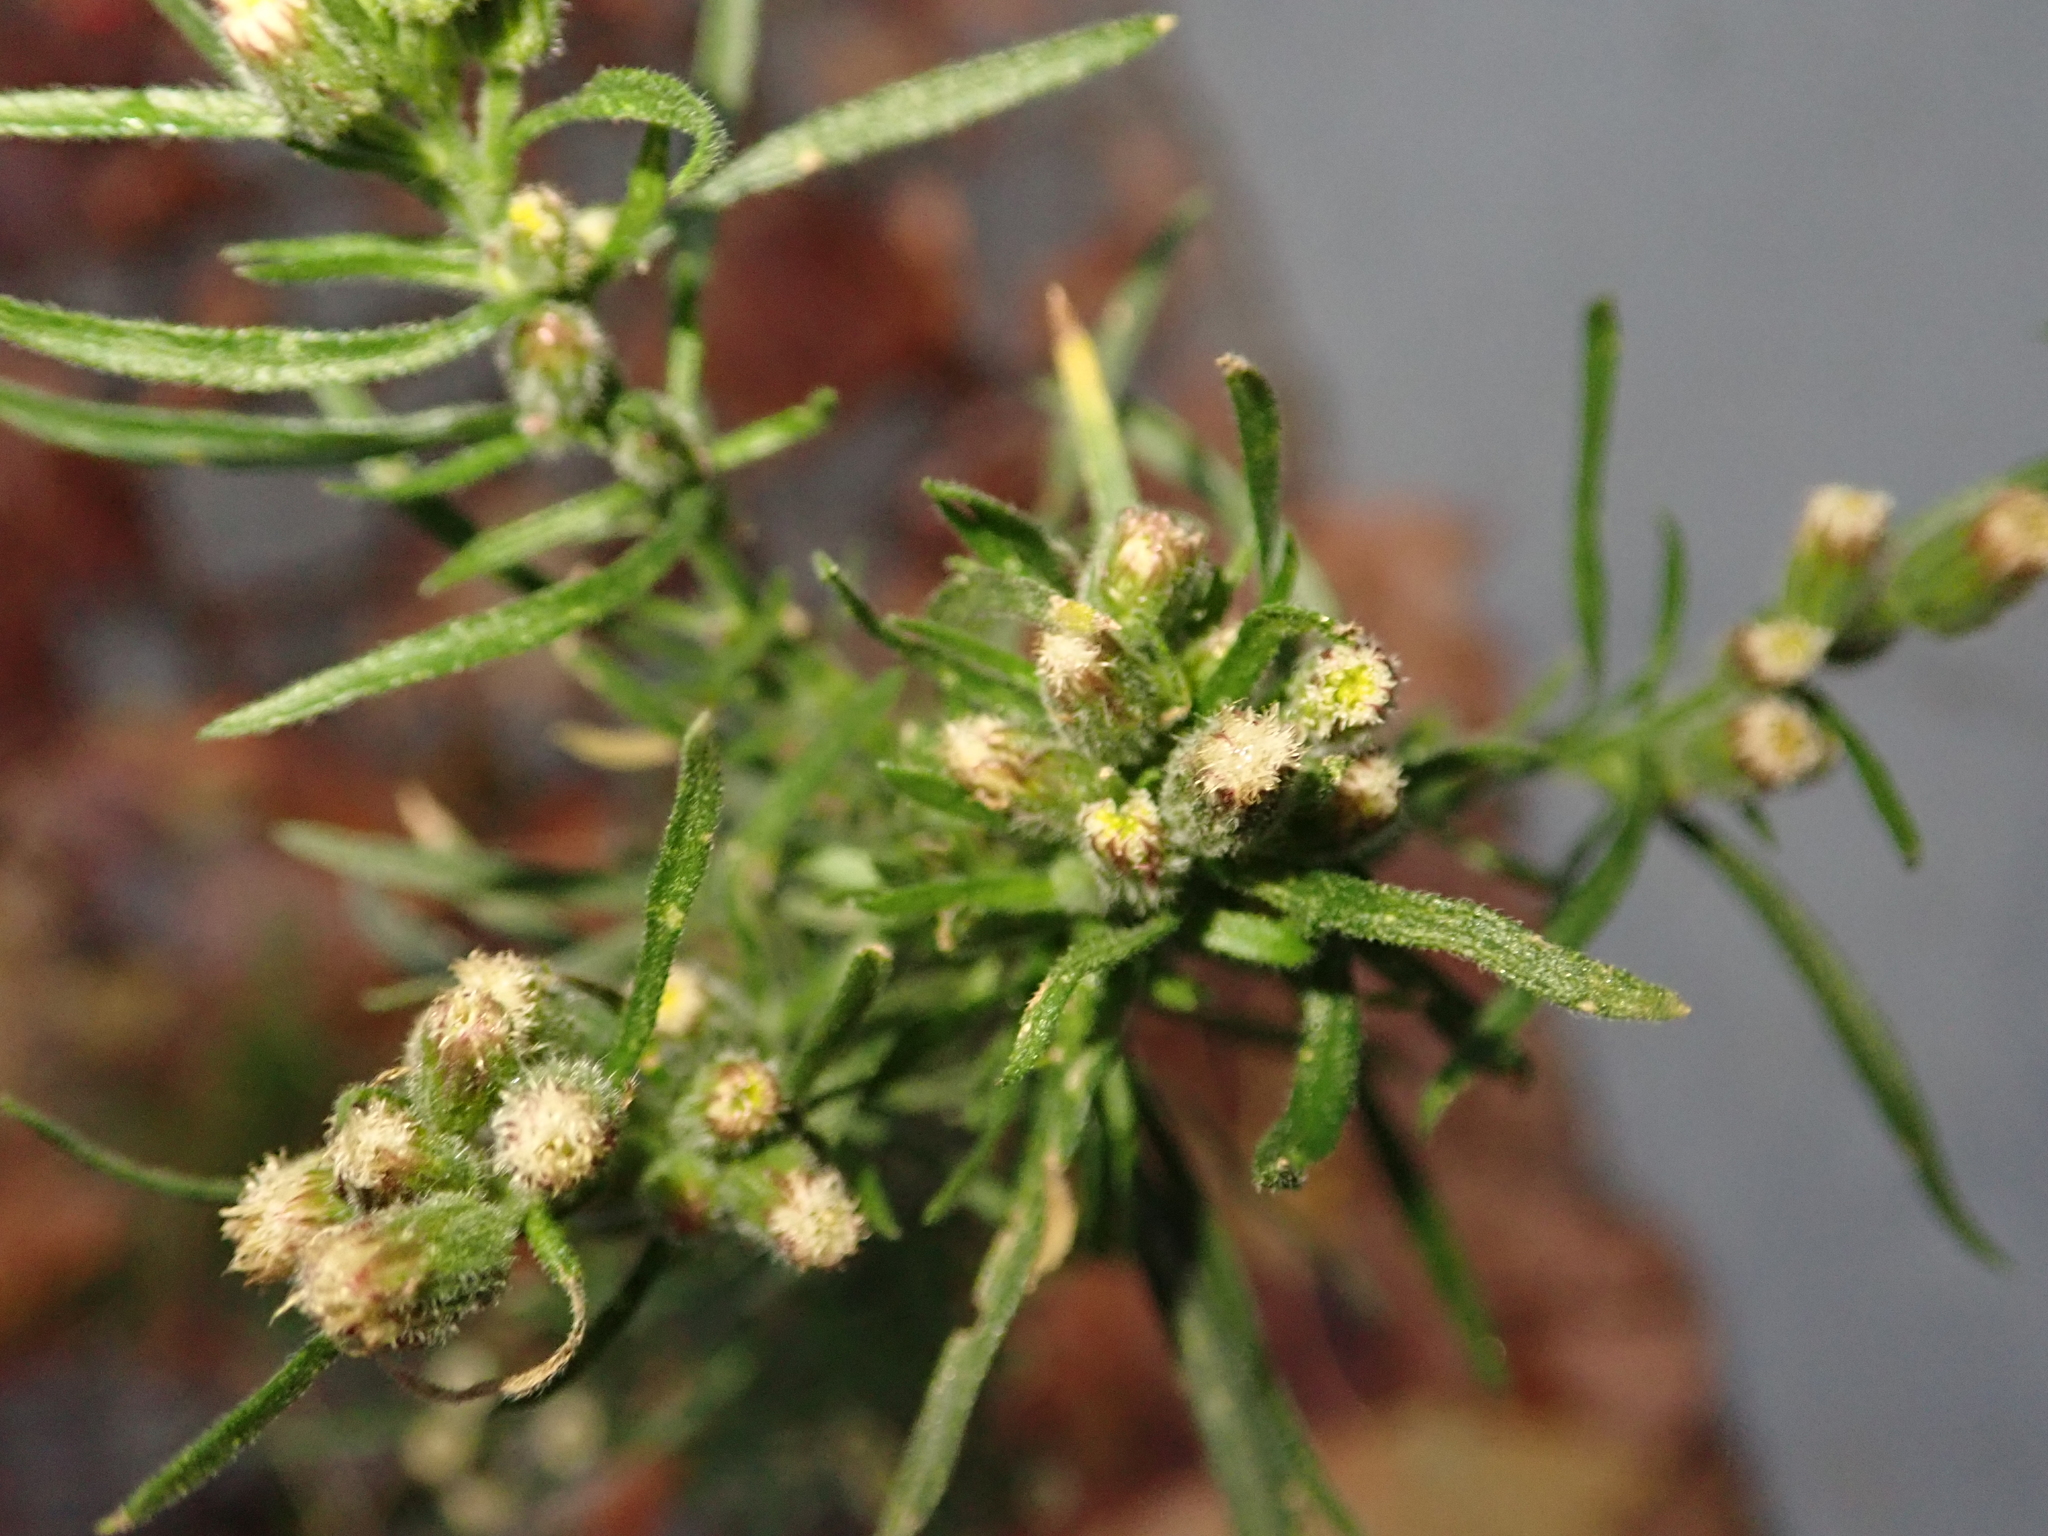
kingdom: Plantae
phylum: Tracheophyta
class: Magnoliopsida
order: Asterales
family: Asteraceae
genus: Erigeron
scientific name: Erigeron bonariensis
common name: Argentine fleabane
